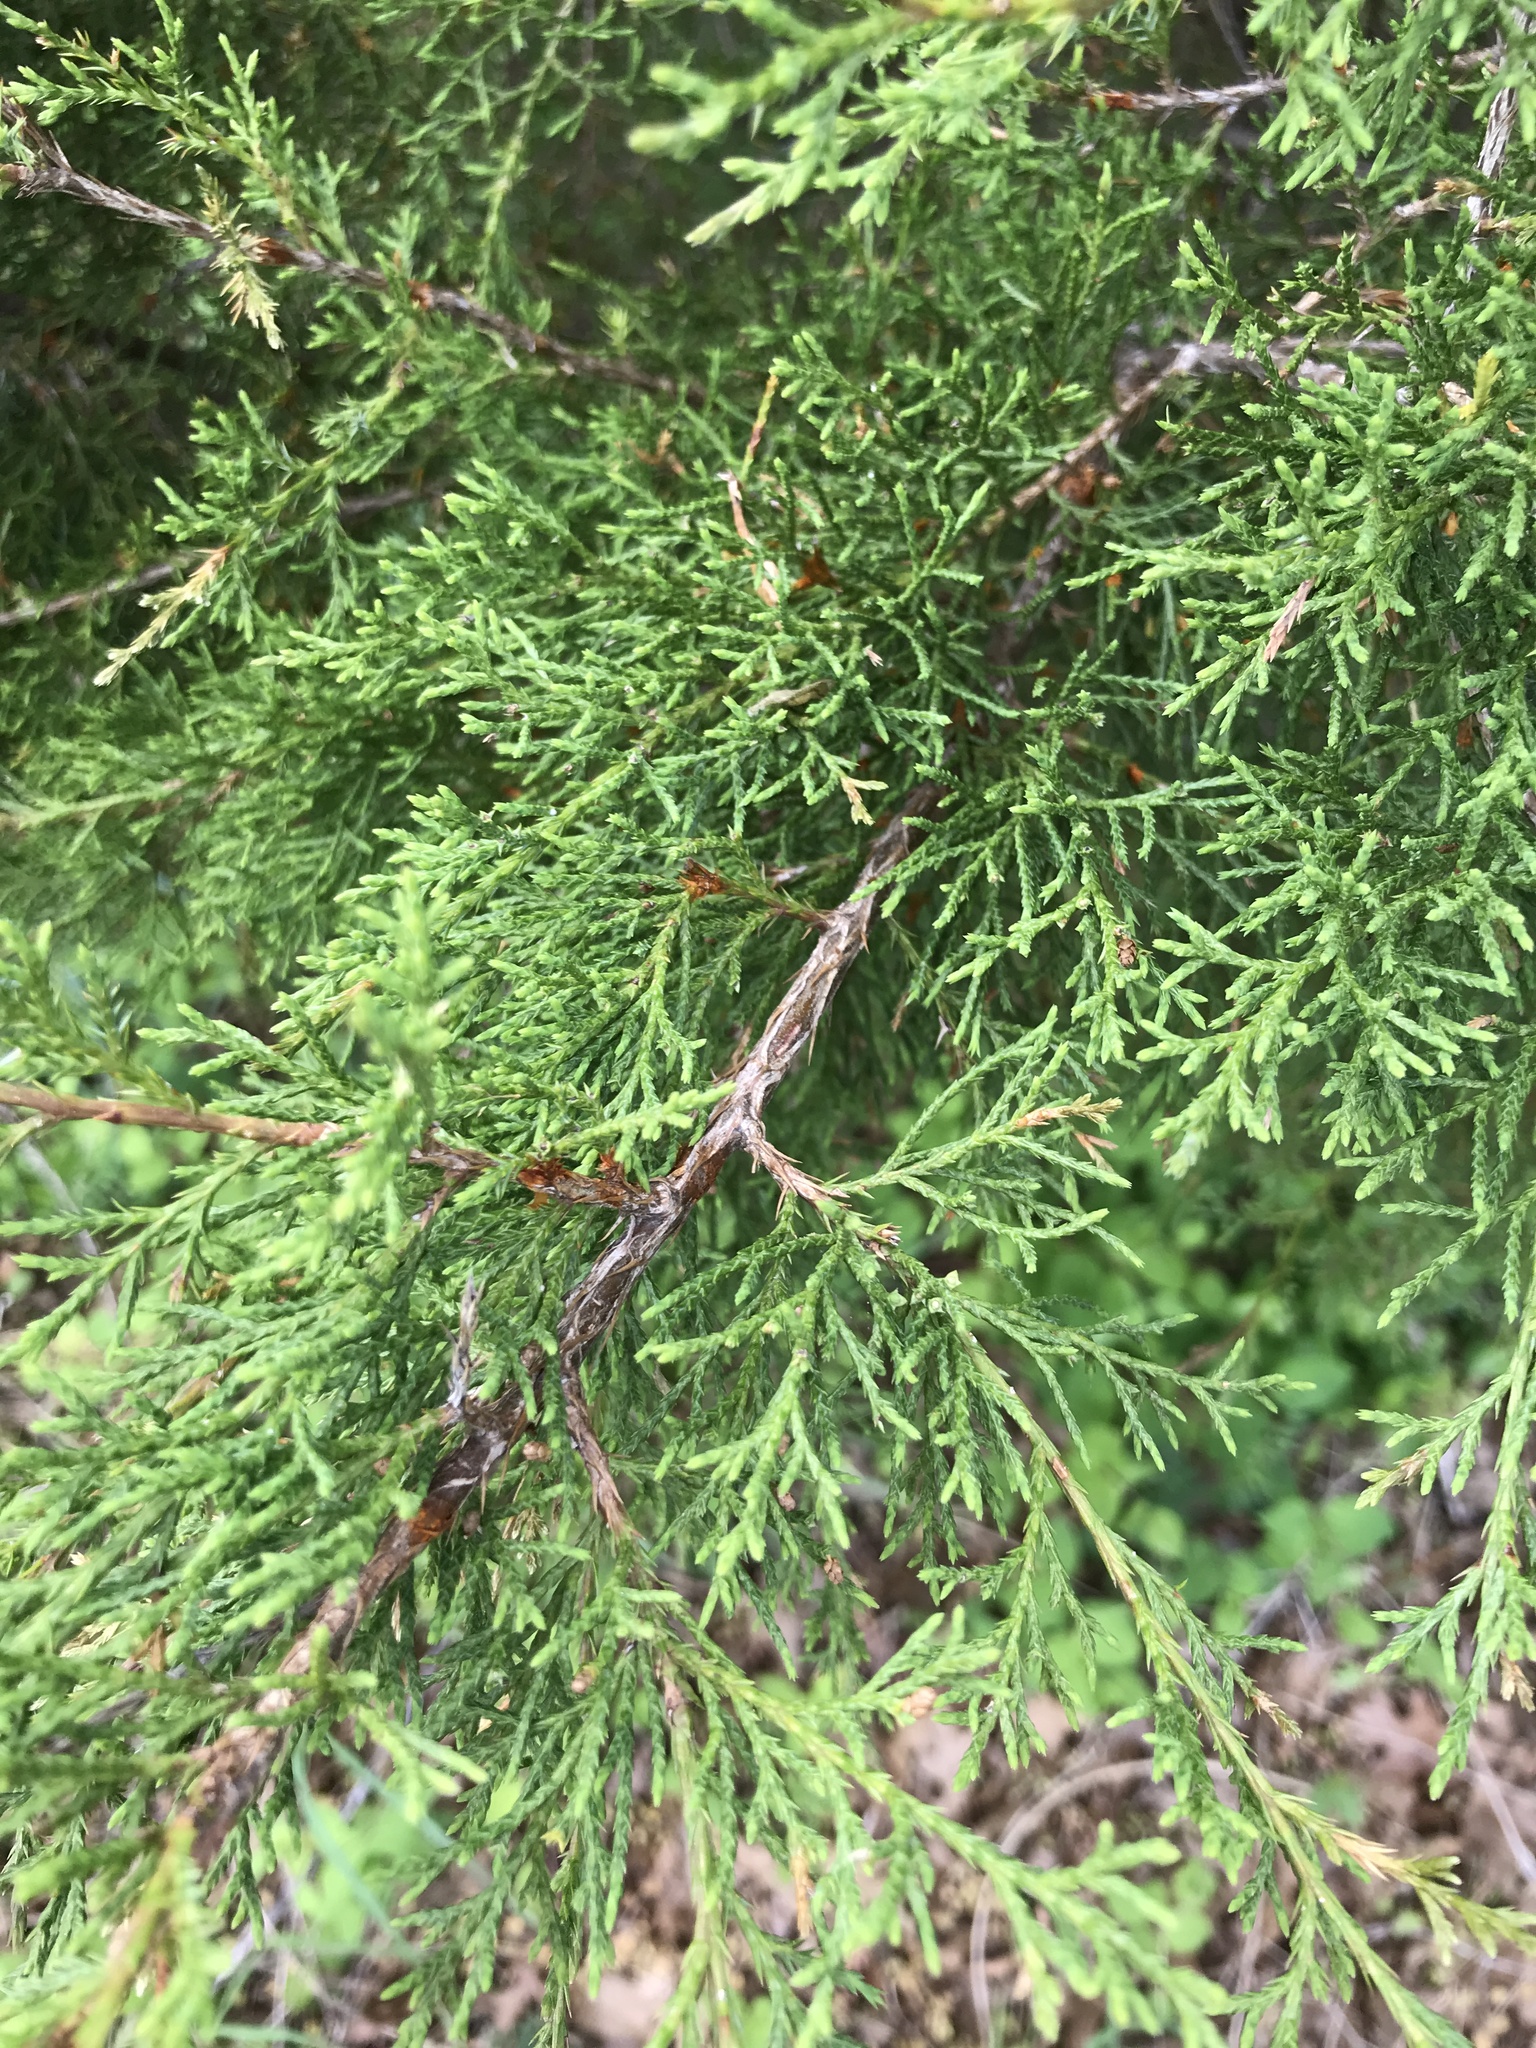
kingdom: Plantae
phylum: Tracheophyta
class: Pinopsida
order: Pinales
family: Cupressaceae
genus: Juniperus
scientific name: Juniperus virginiana
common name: Red juniper
